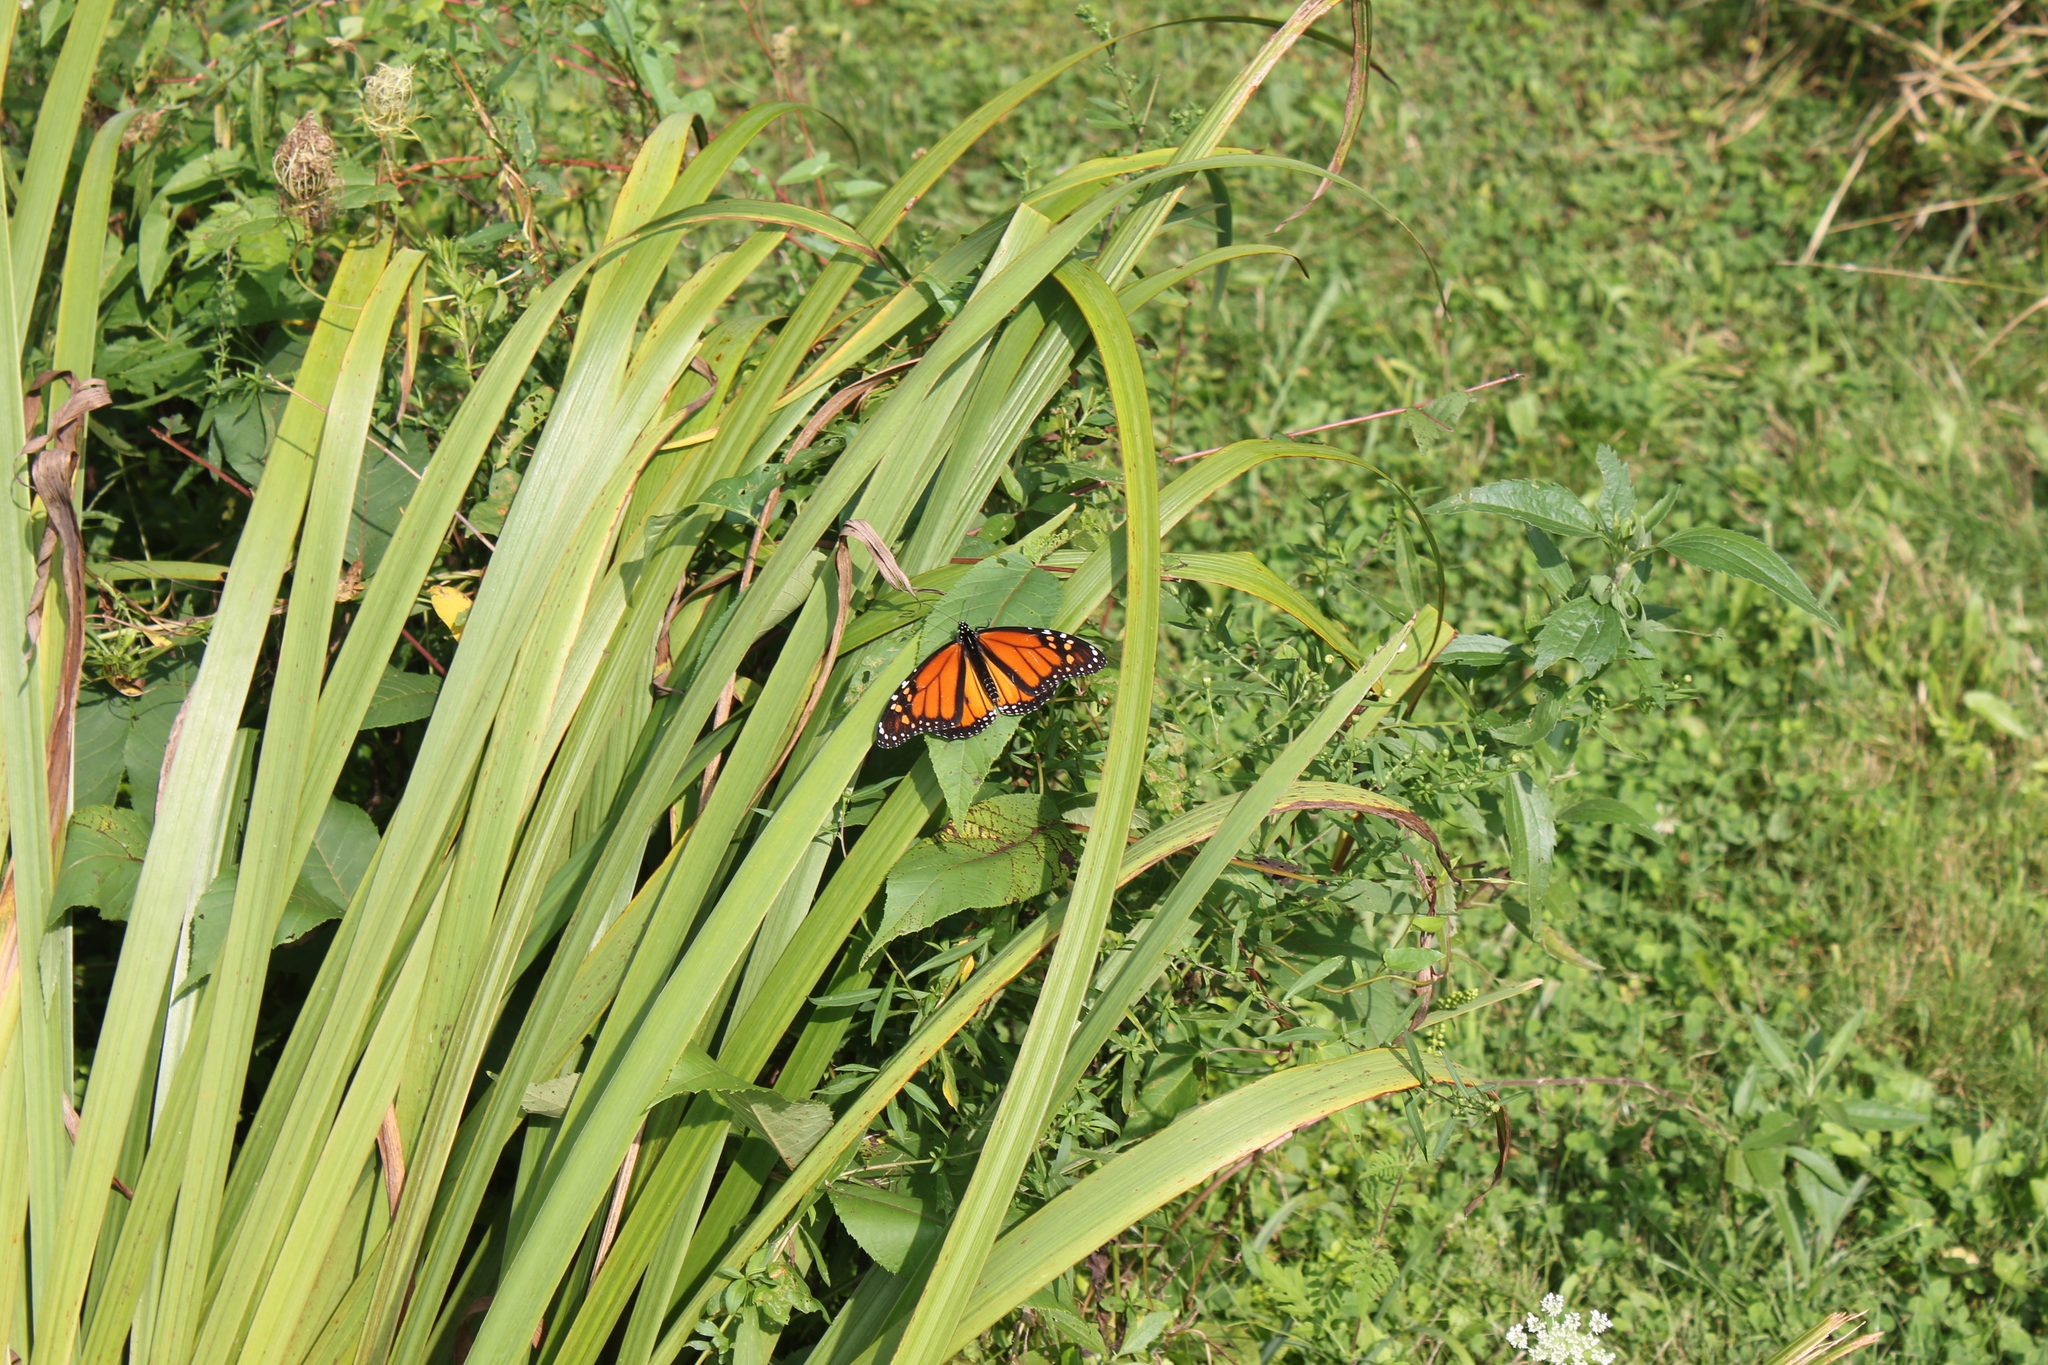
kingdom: Animalia
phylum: Arthropoda
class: Insecta
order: Lepidoptera
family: Nymphalidae
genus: Danaus
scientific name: Danaus plexippus
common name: Monarch
